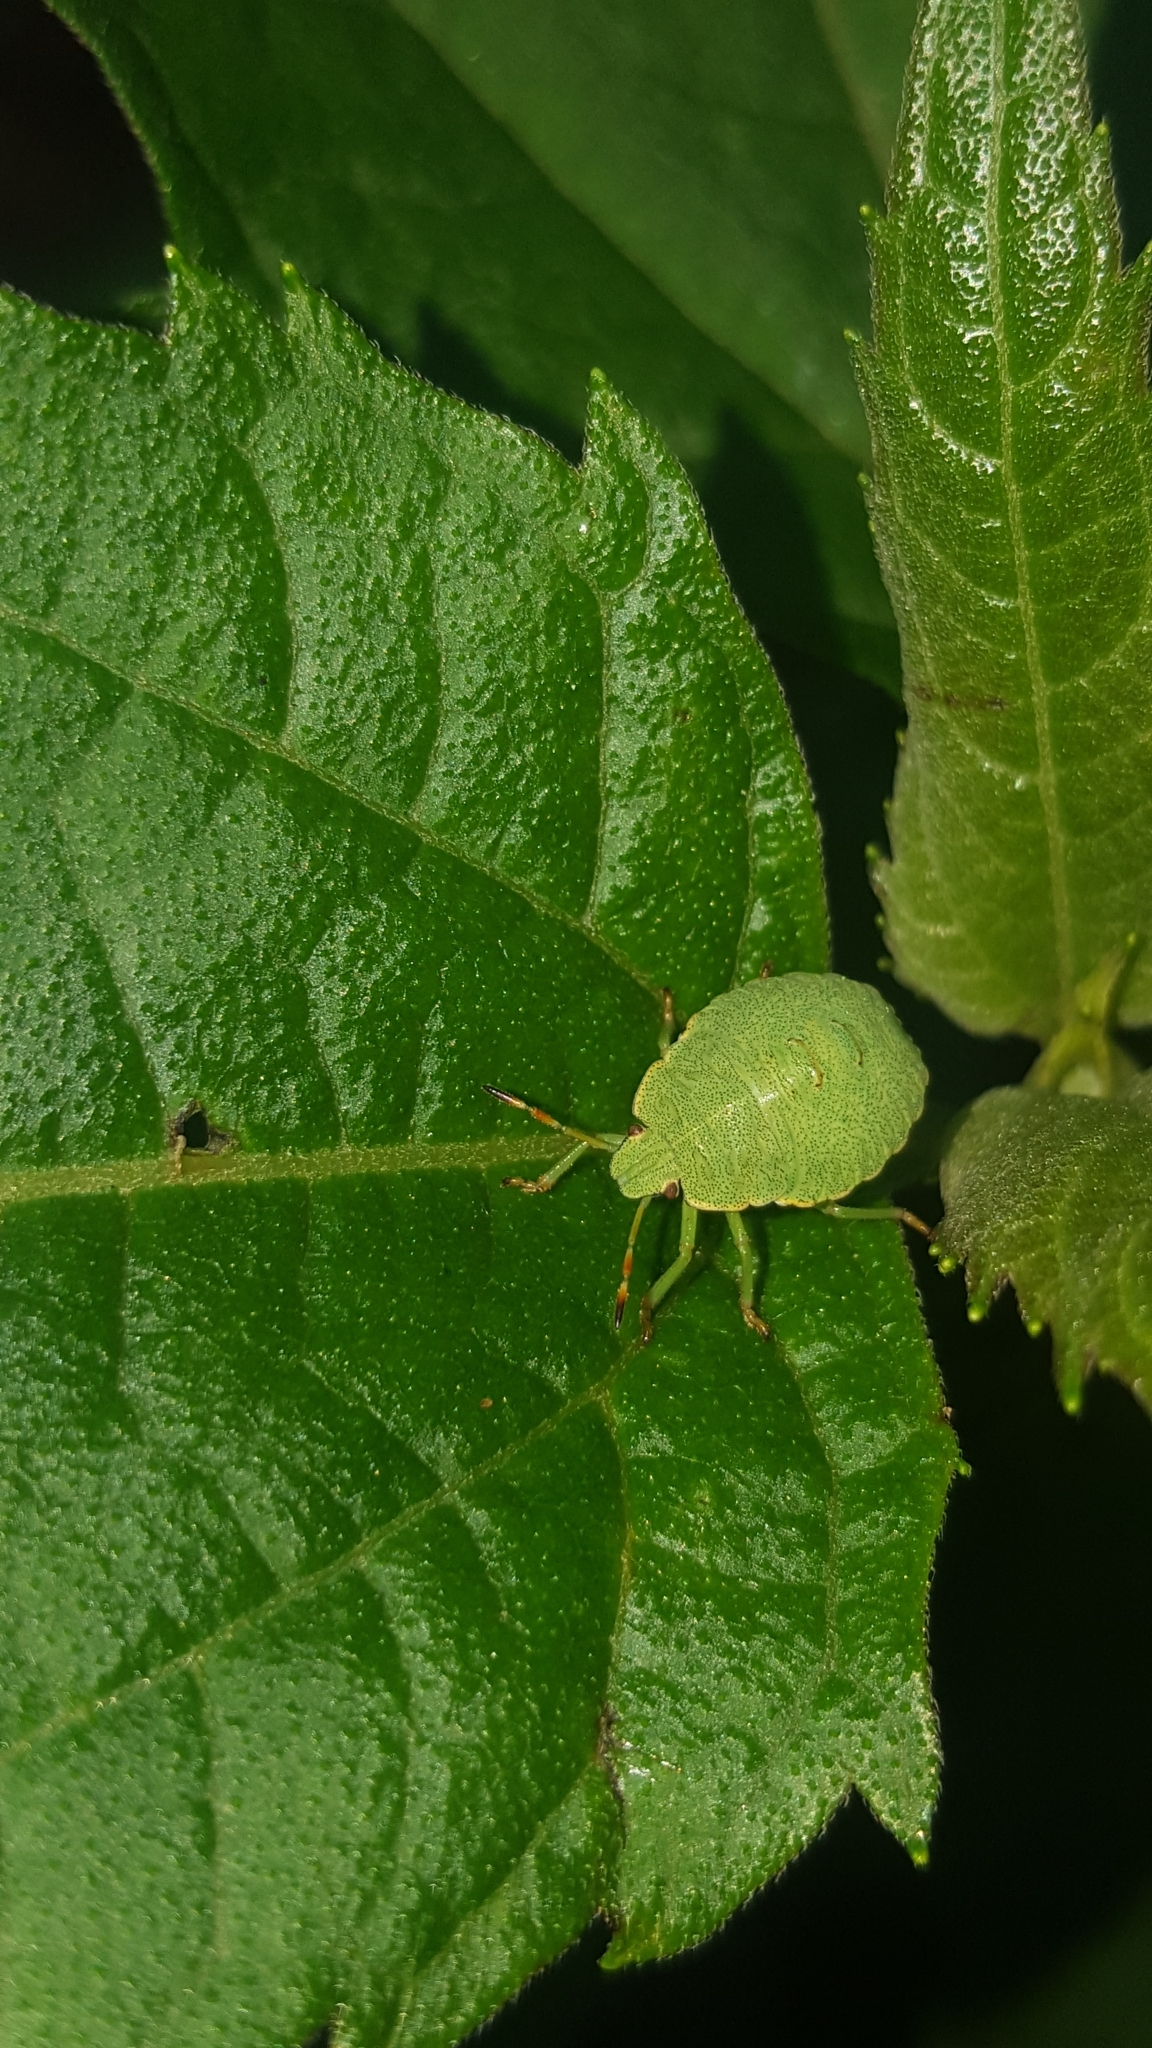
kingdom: Animalia
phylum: Arthropoda
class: Insecta
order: Hemiptera
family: Pentatomidae
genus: Palomena
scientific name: Palomena prasina
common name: Green shieldbug
